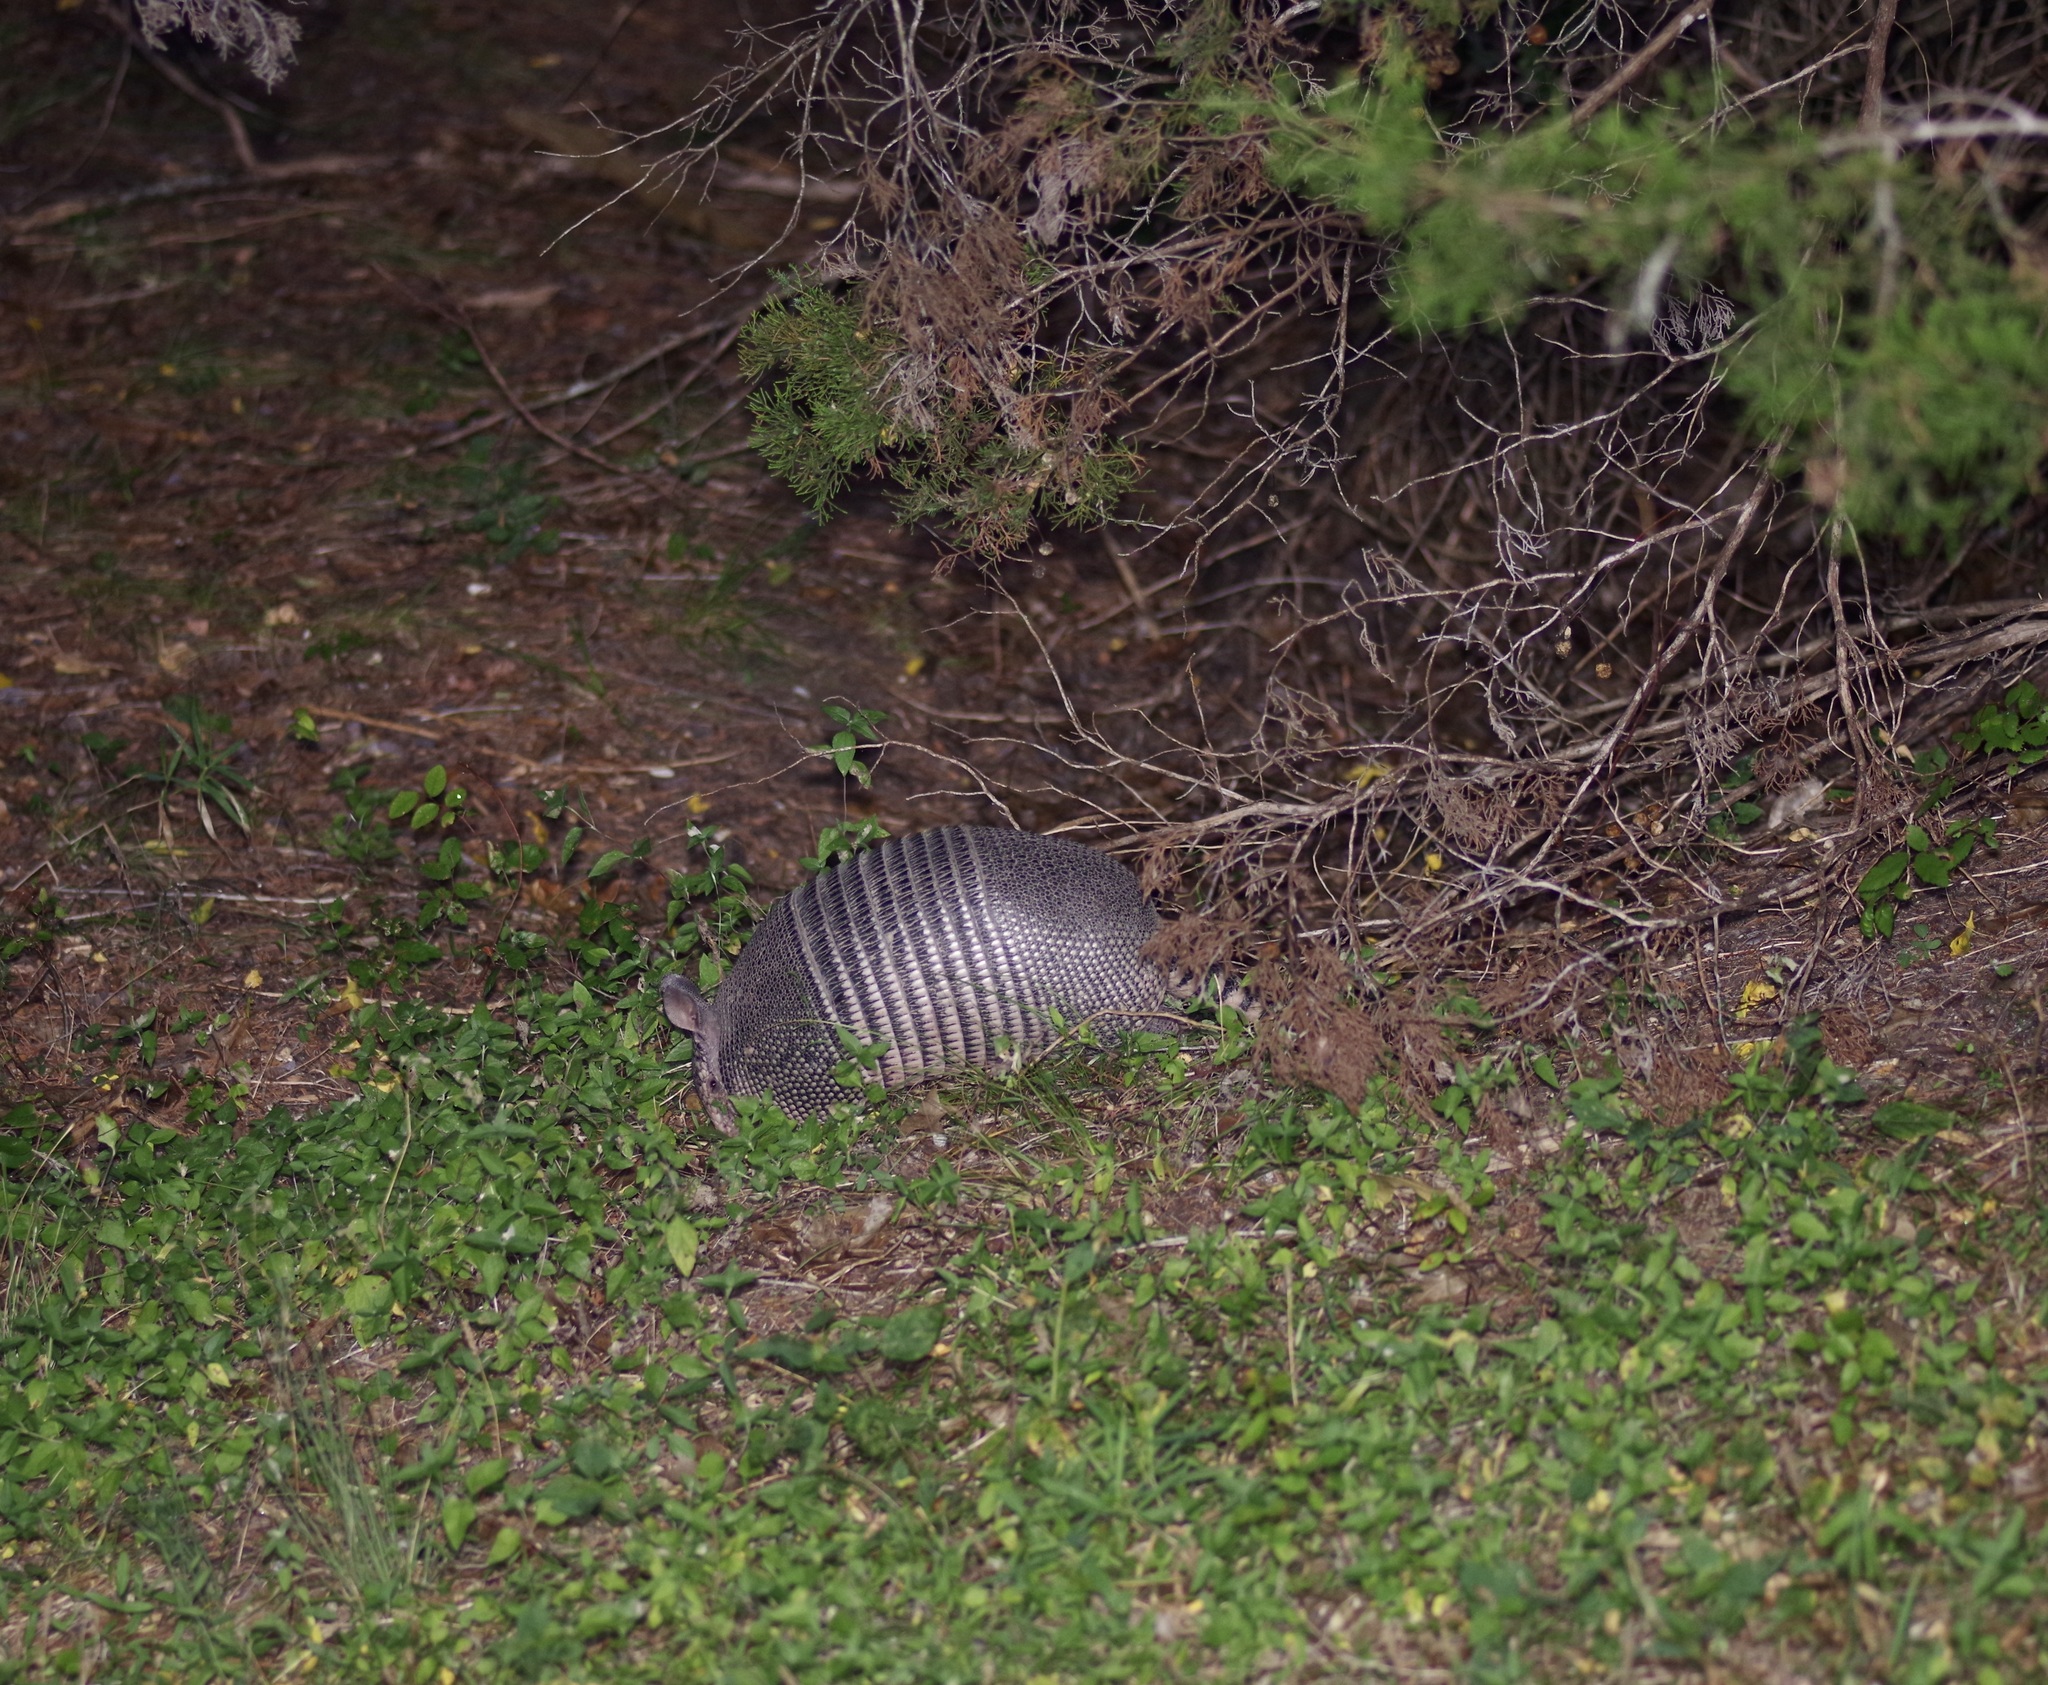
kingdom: Animalia
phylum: Chordata
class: Mammalia
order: Cingulata
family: Dasypodidae
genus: Dasypus
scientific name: Dasypus novemcinctus
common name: Nine-banded armadillo
